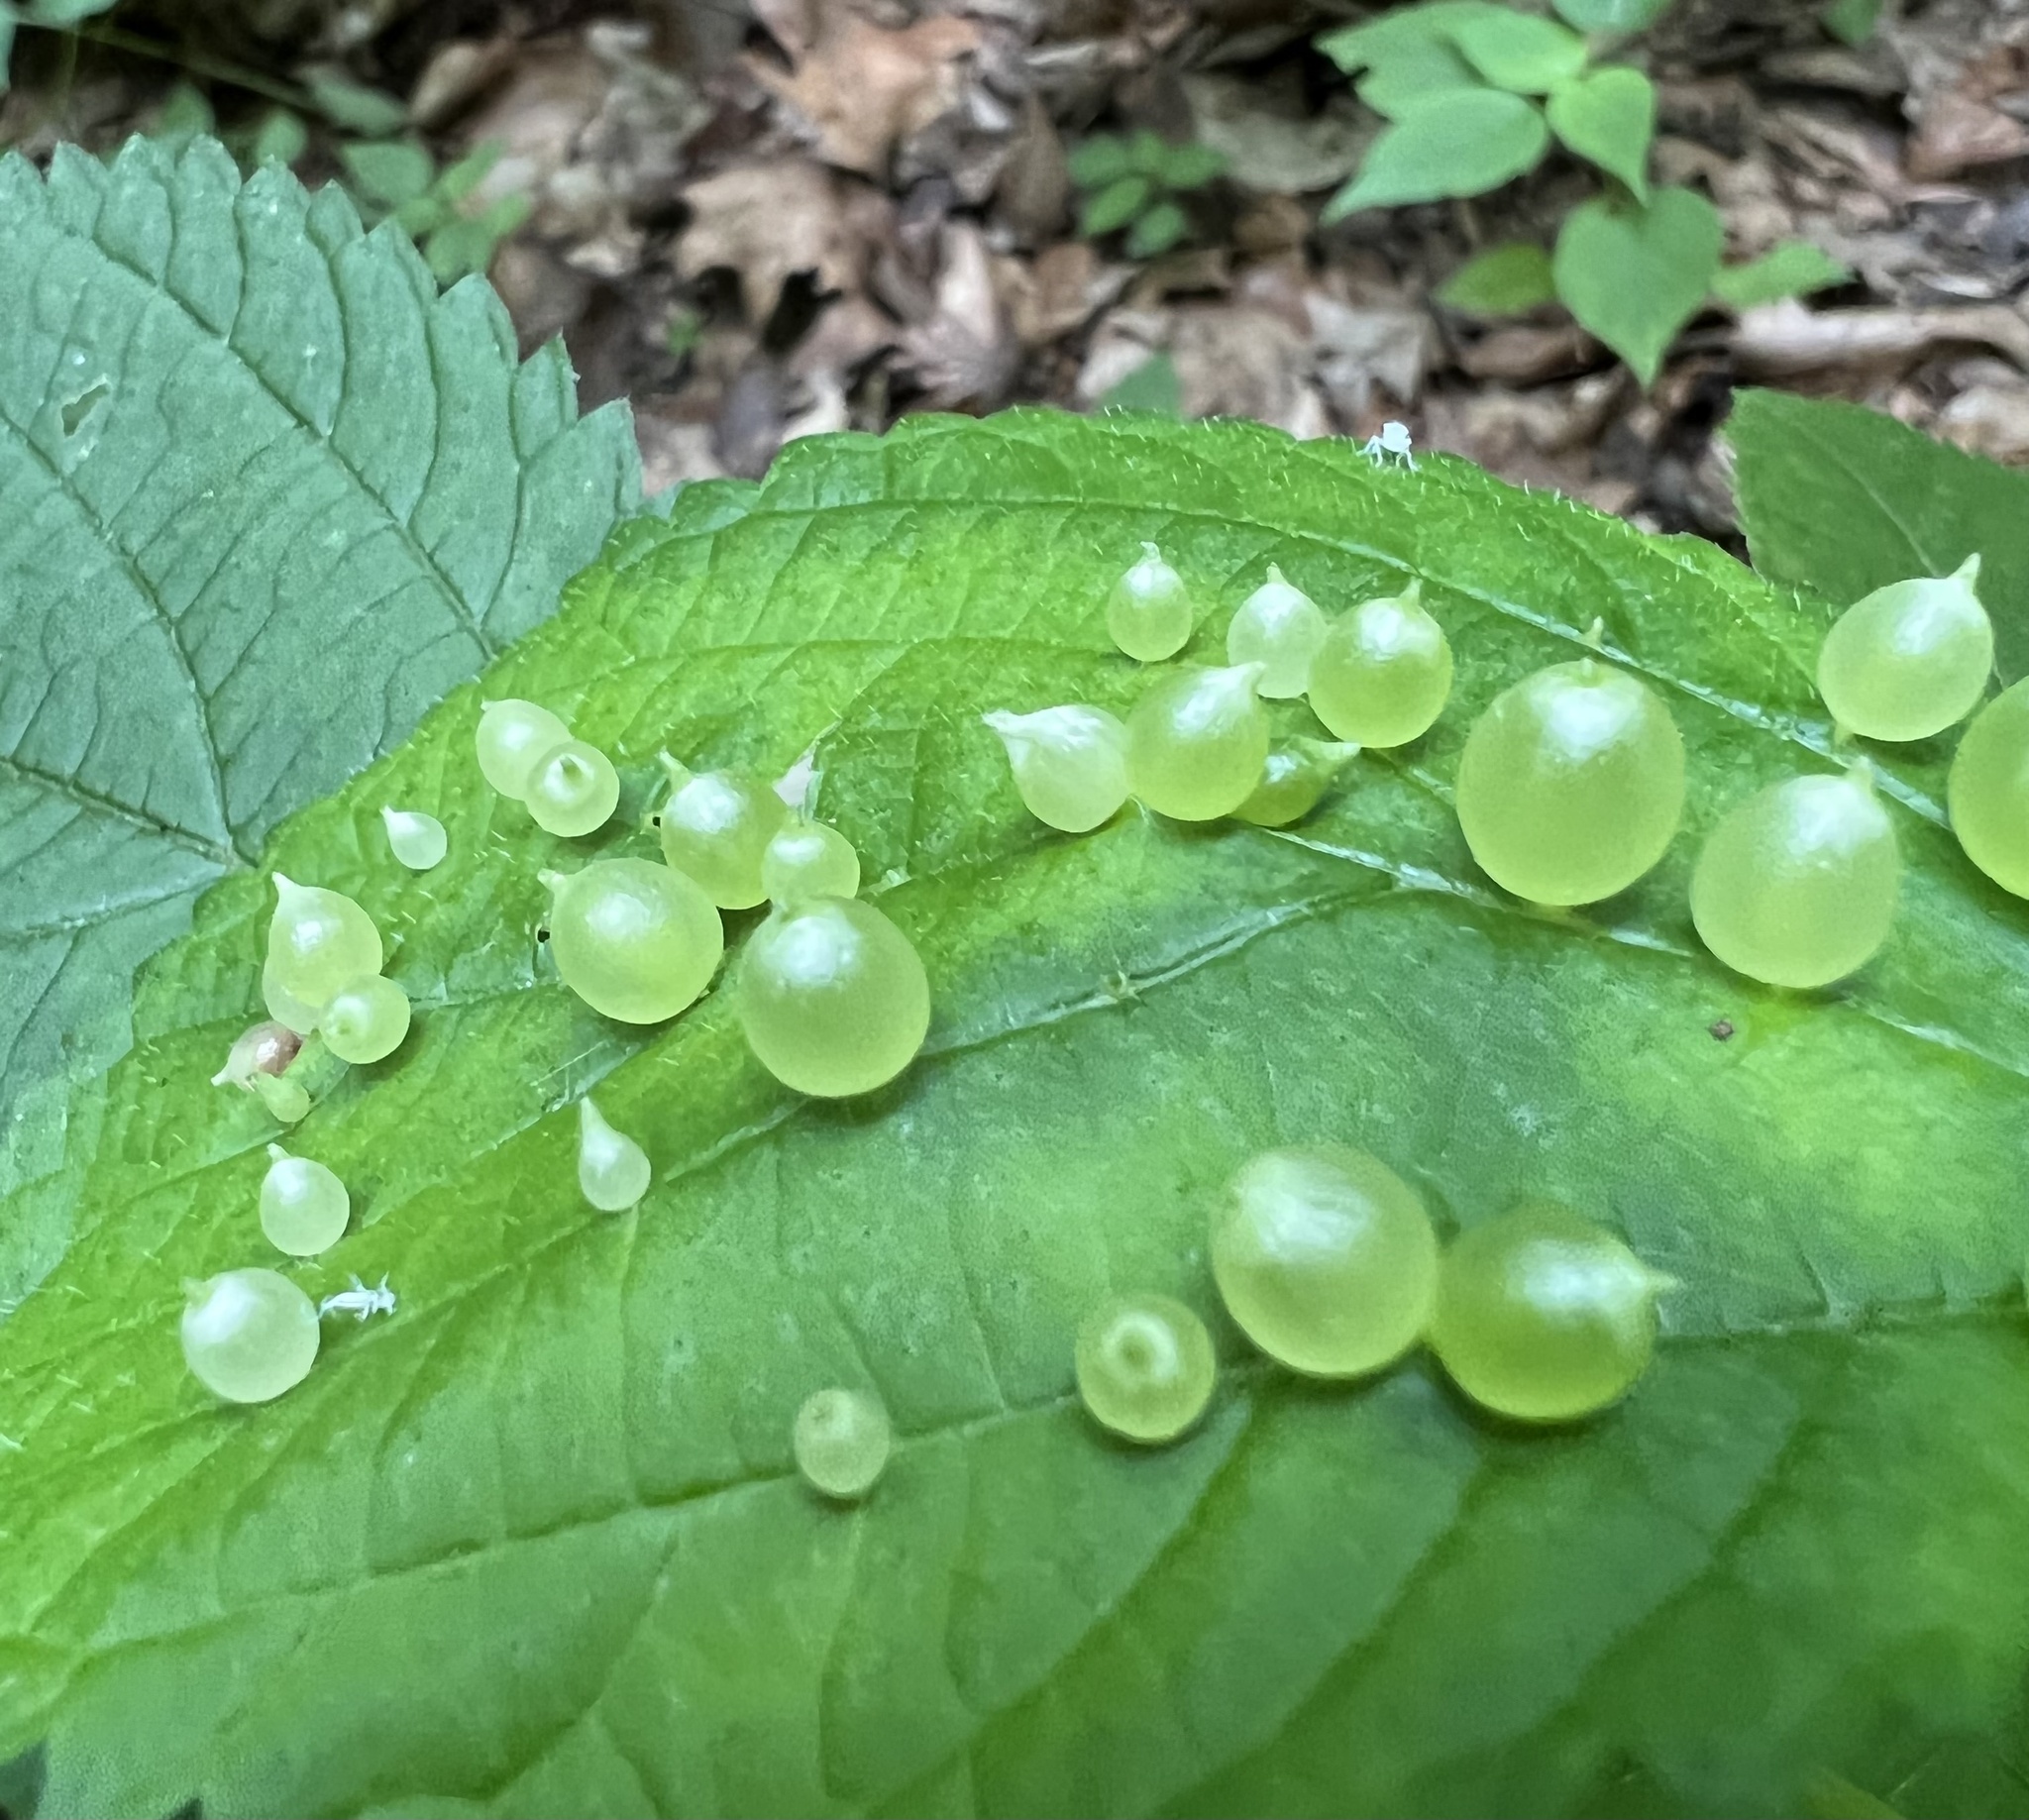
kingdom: Animalia
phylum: Arthropoda
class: Insecta
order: Diptera
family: Cecidomyiidae
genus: Dasineura
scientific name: Dasineura investita
